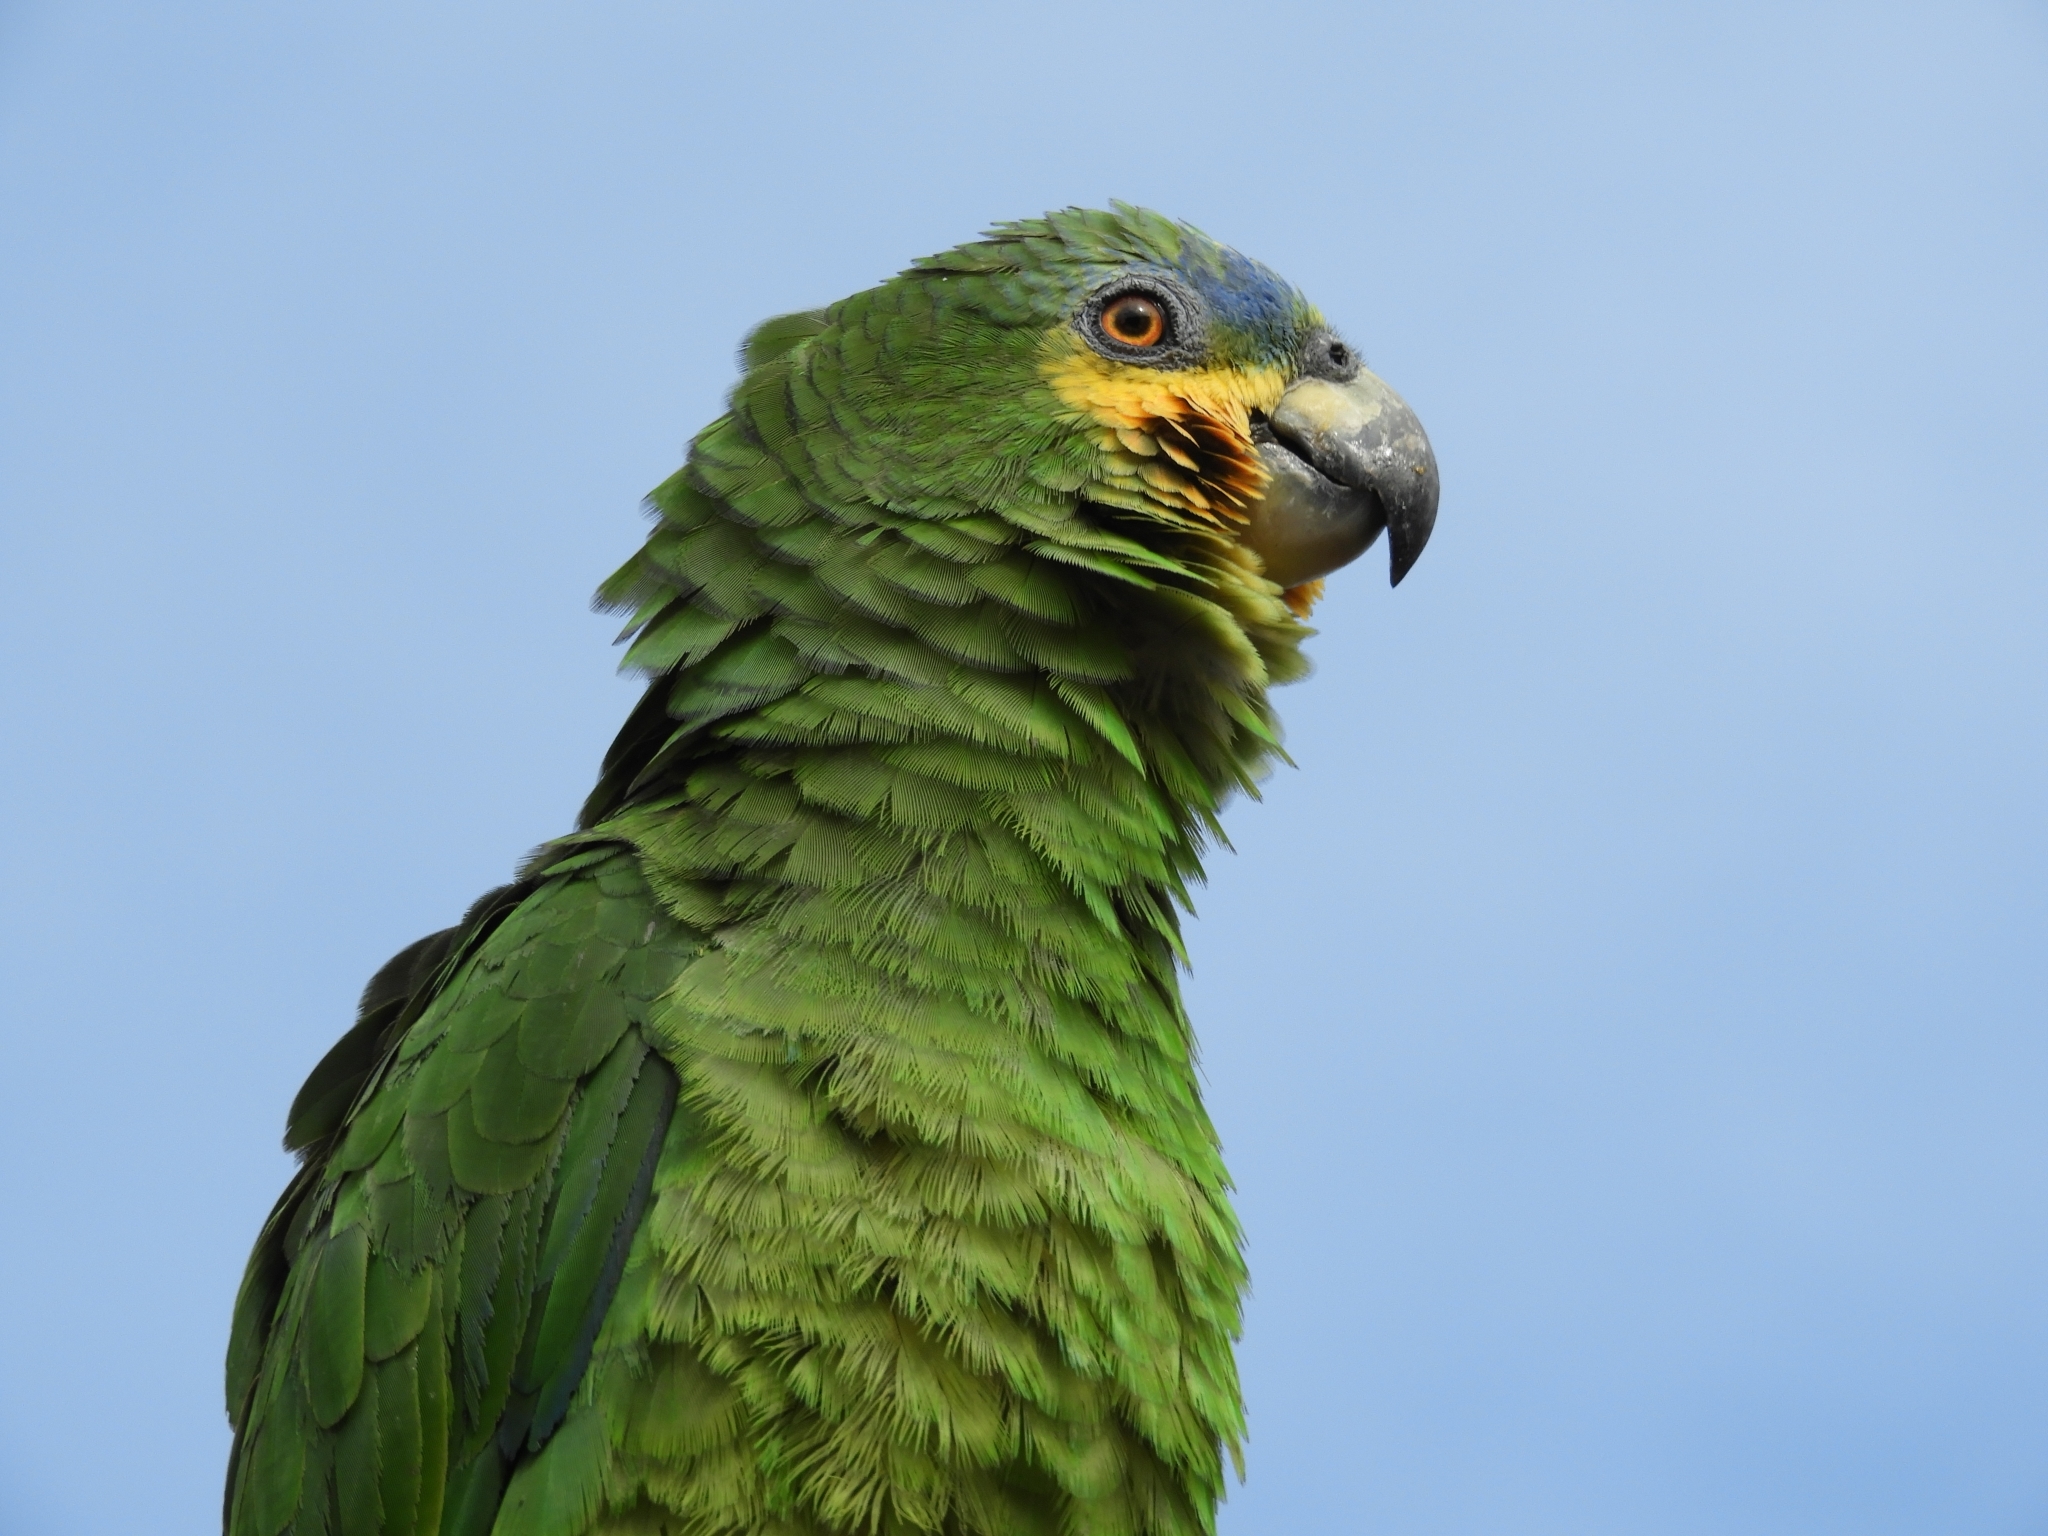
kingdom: Animalia
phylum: Chordata
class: Aves
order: Psittaciformes
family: Psittacidae
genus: Amazona
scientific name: Amazona amazonica
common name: Orange-winged amazon
